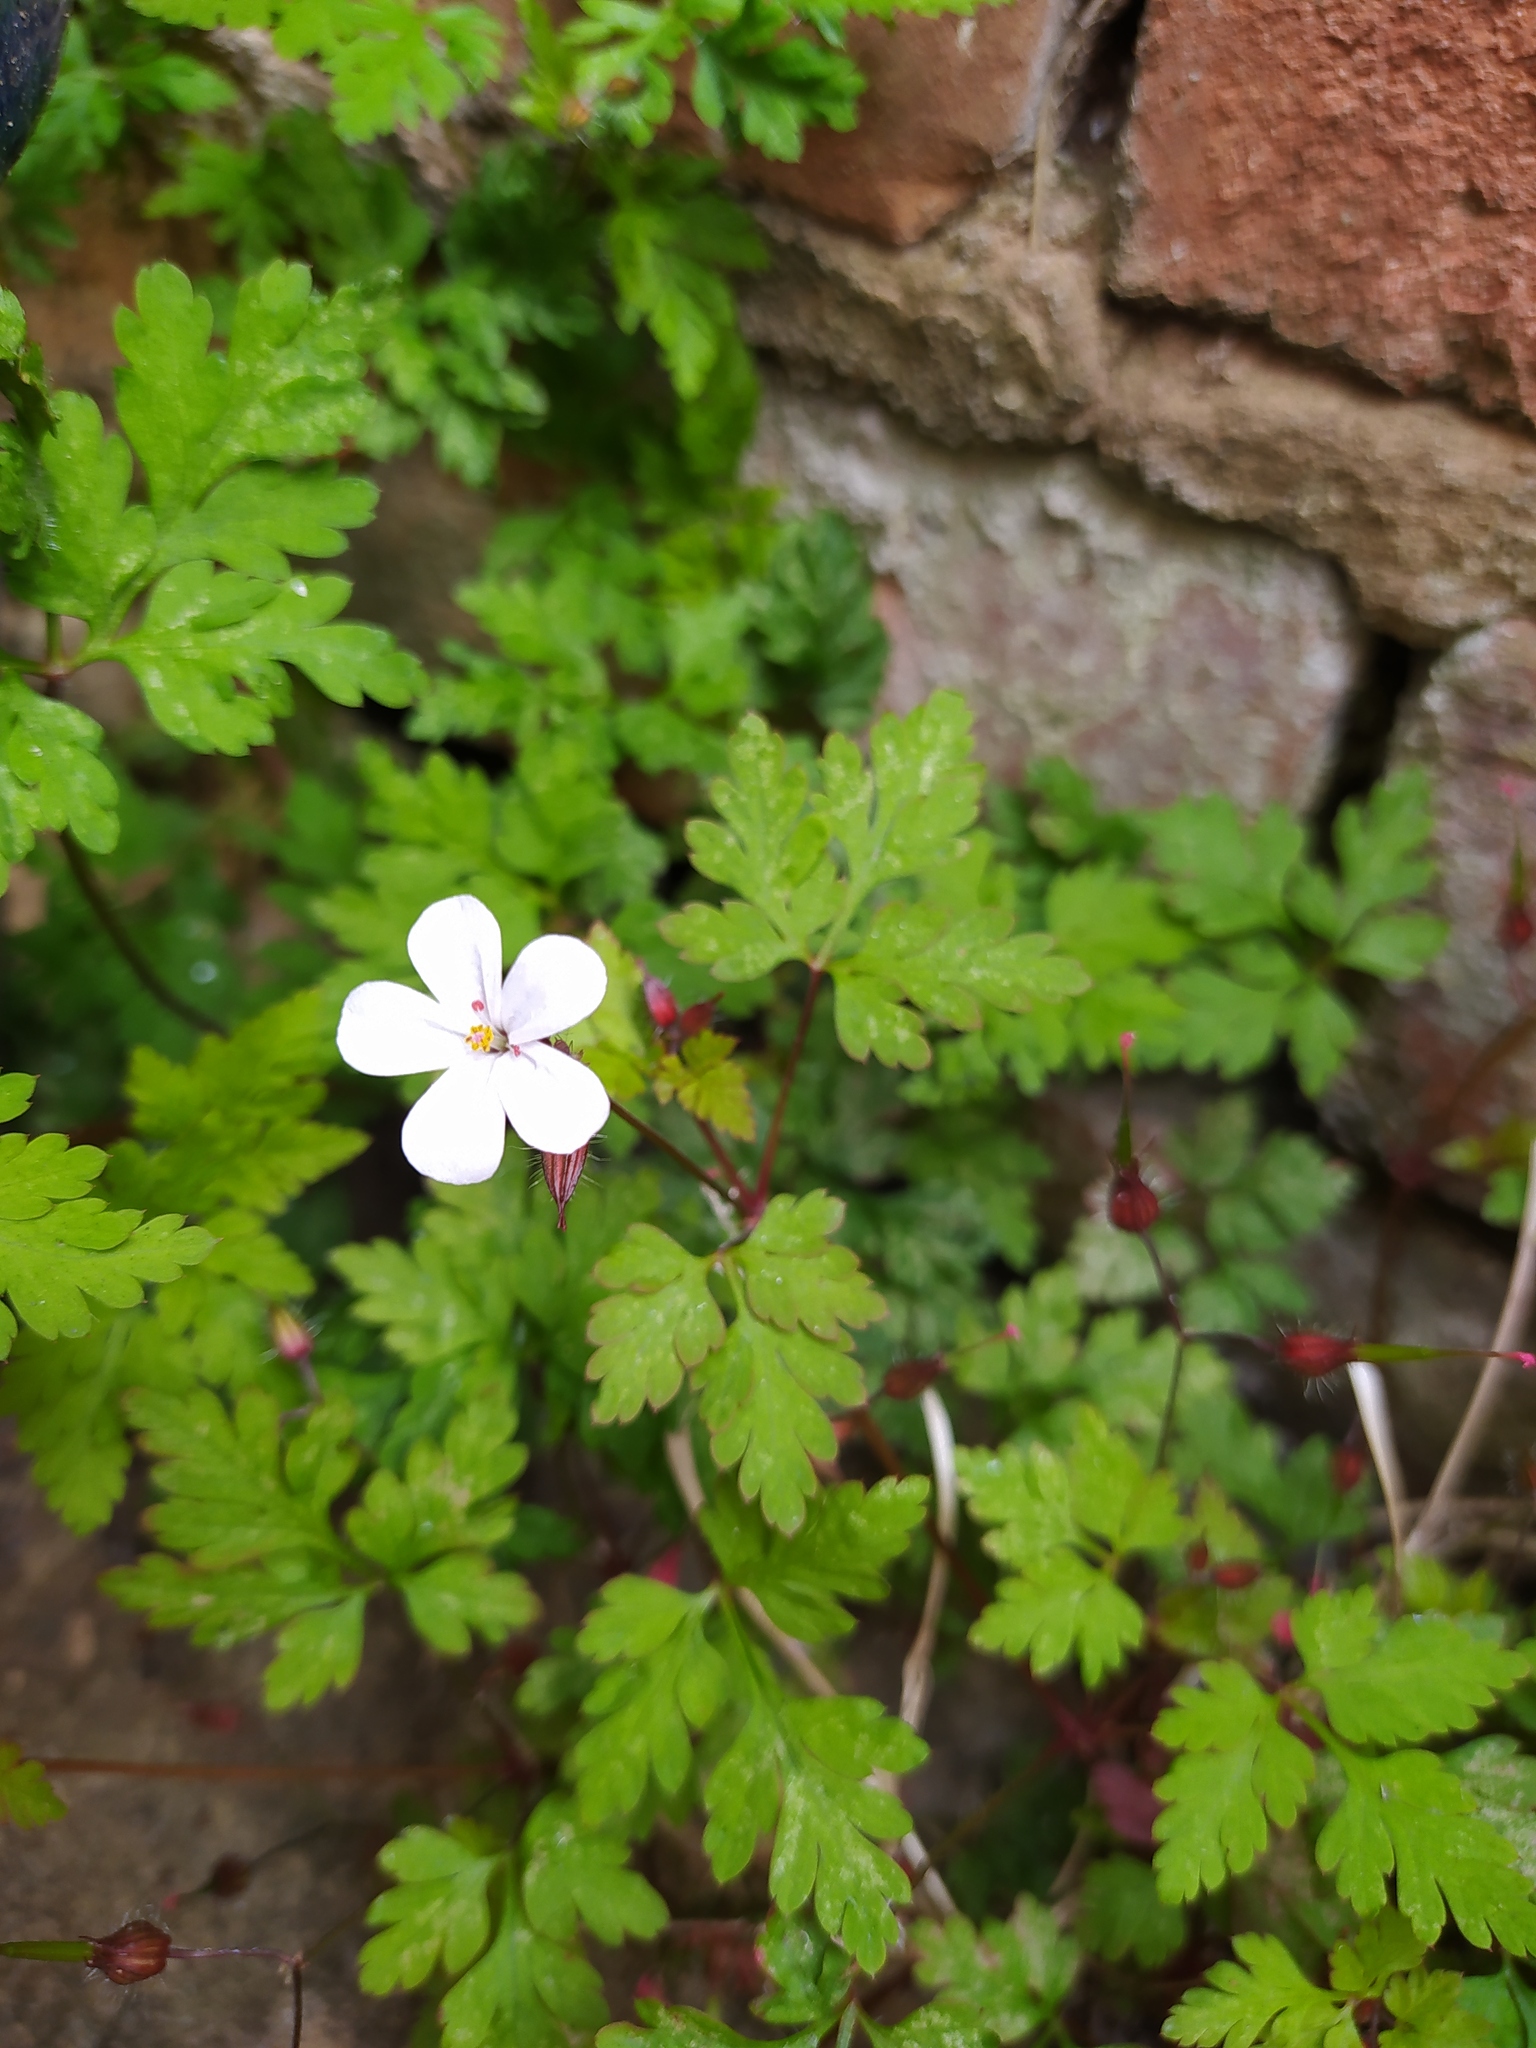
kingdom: Plantae
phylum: Tracheophyta
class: Magnoliopsida
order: Geraniales
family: Geraniaceae
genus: Geranium
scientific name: Geranium robertianum
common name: Herb-robert
